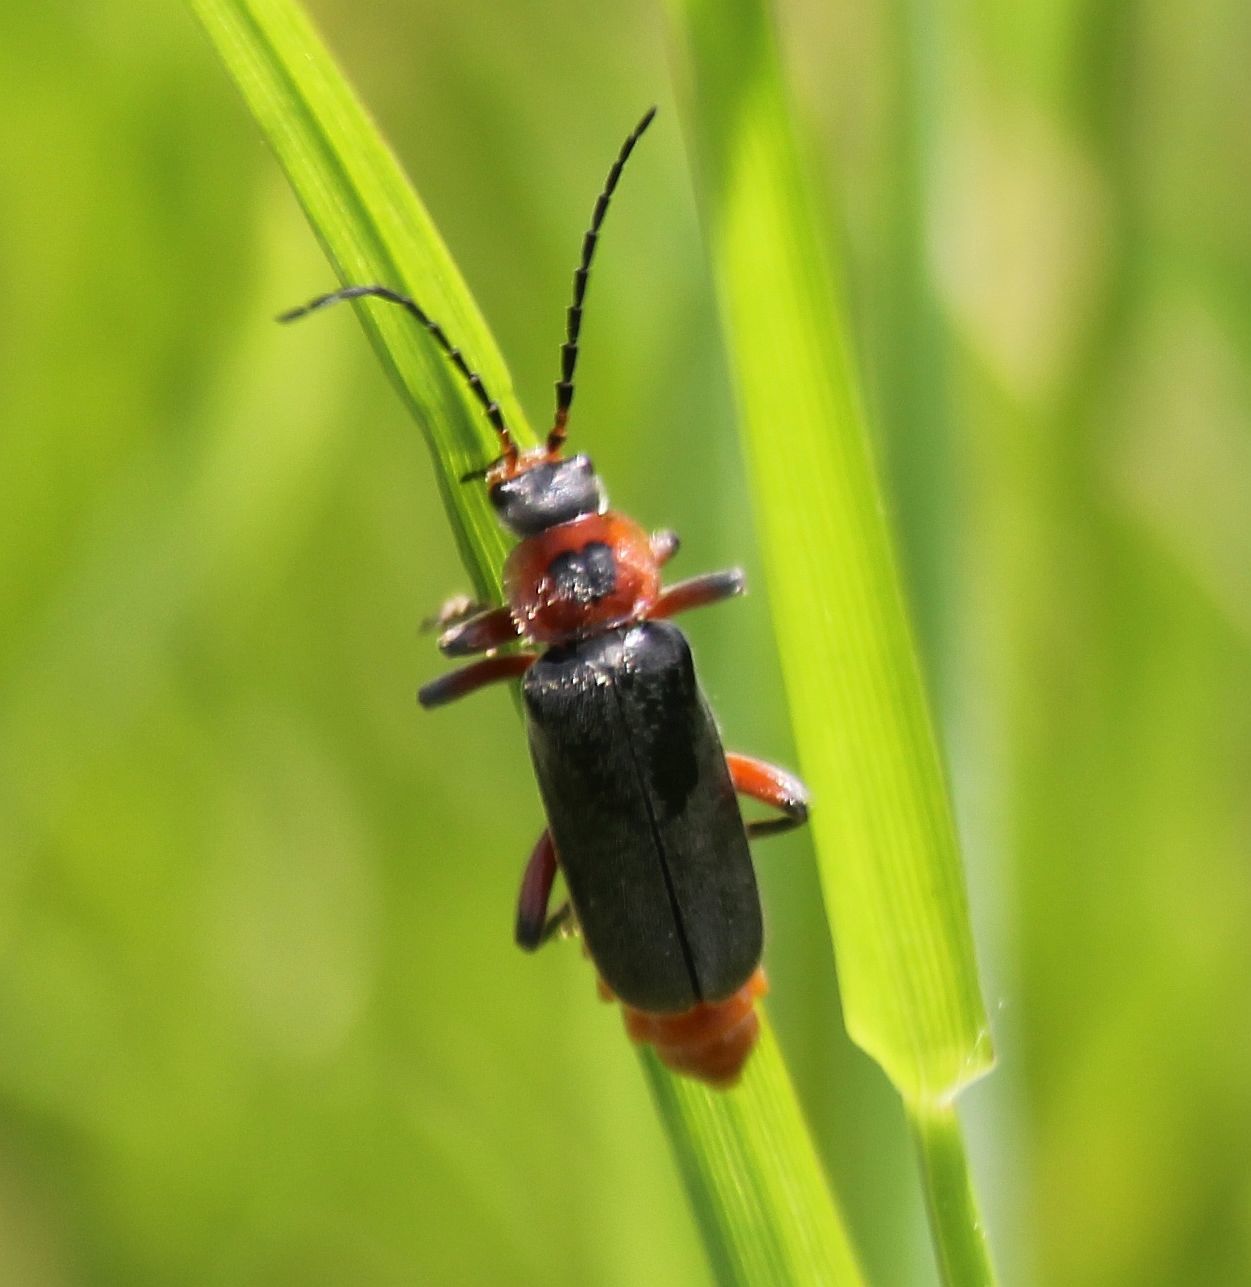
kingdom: Animalia
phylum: Arthropoda
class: Insecta
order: Coleoptera
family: Cantharidae
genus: Cantharis
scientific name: Cantharis rustica
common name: Soldier beetle
